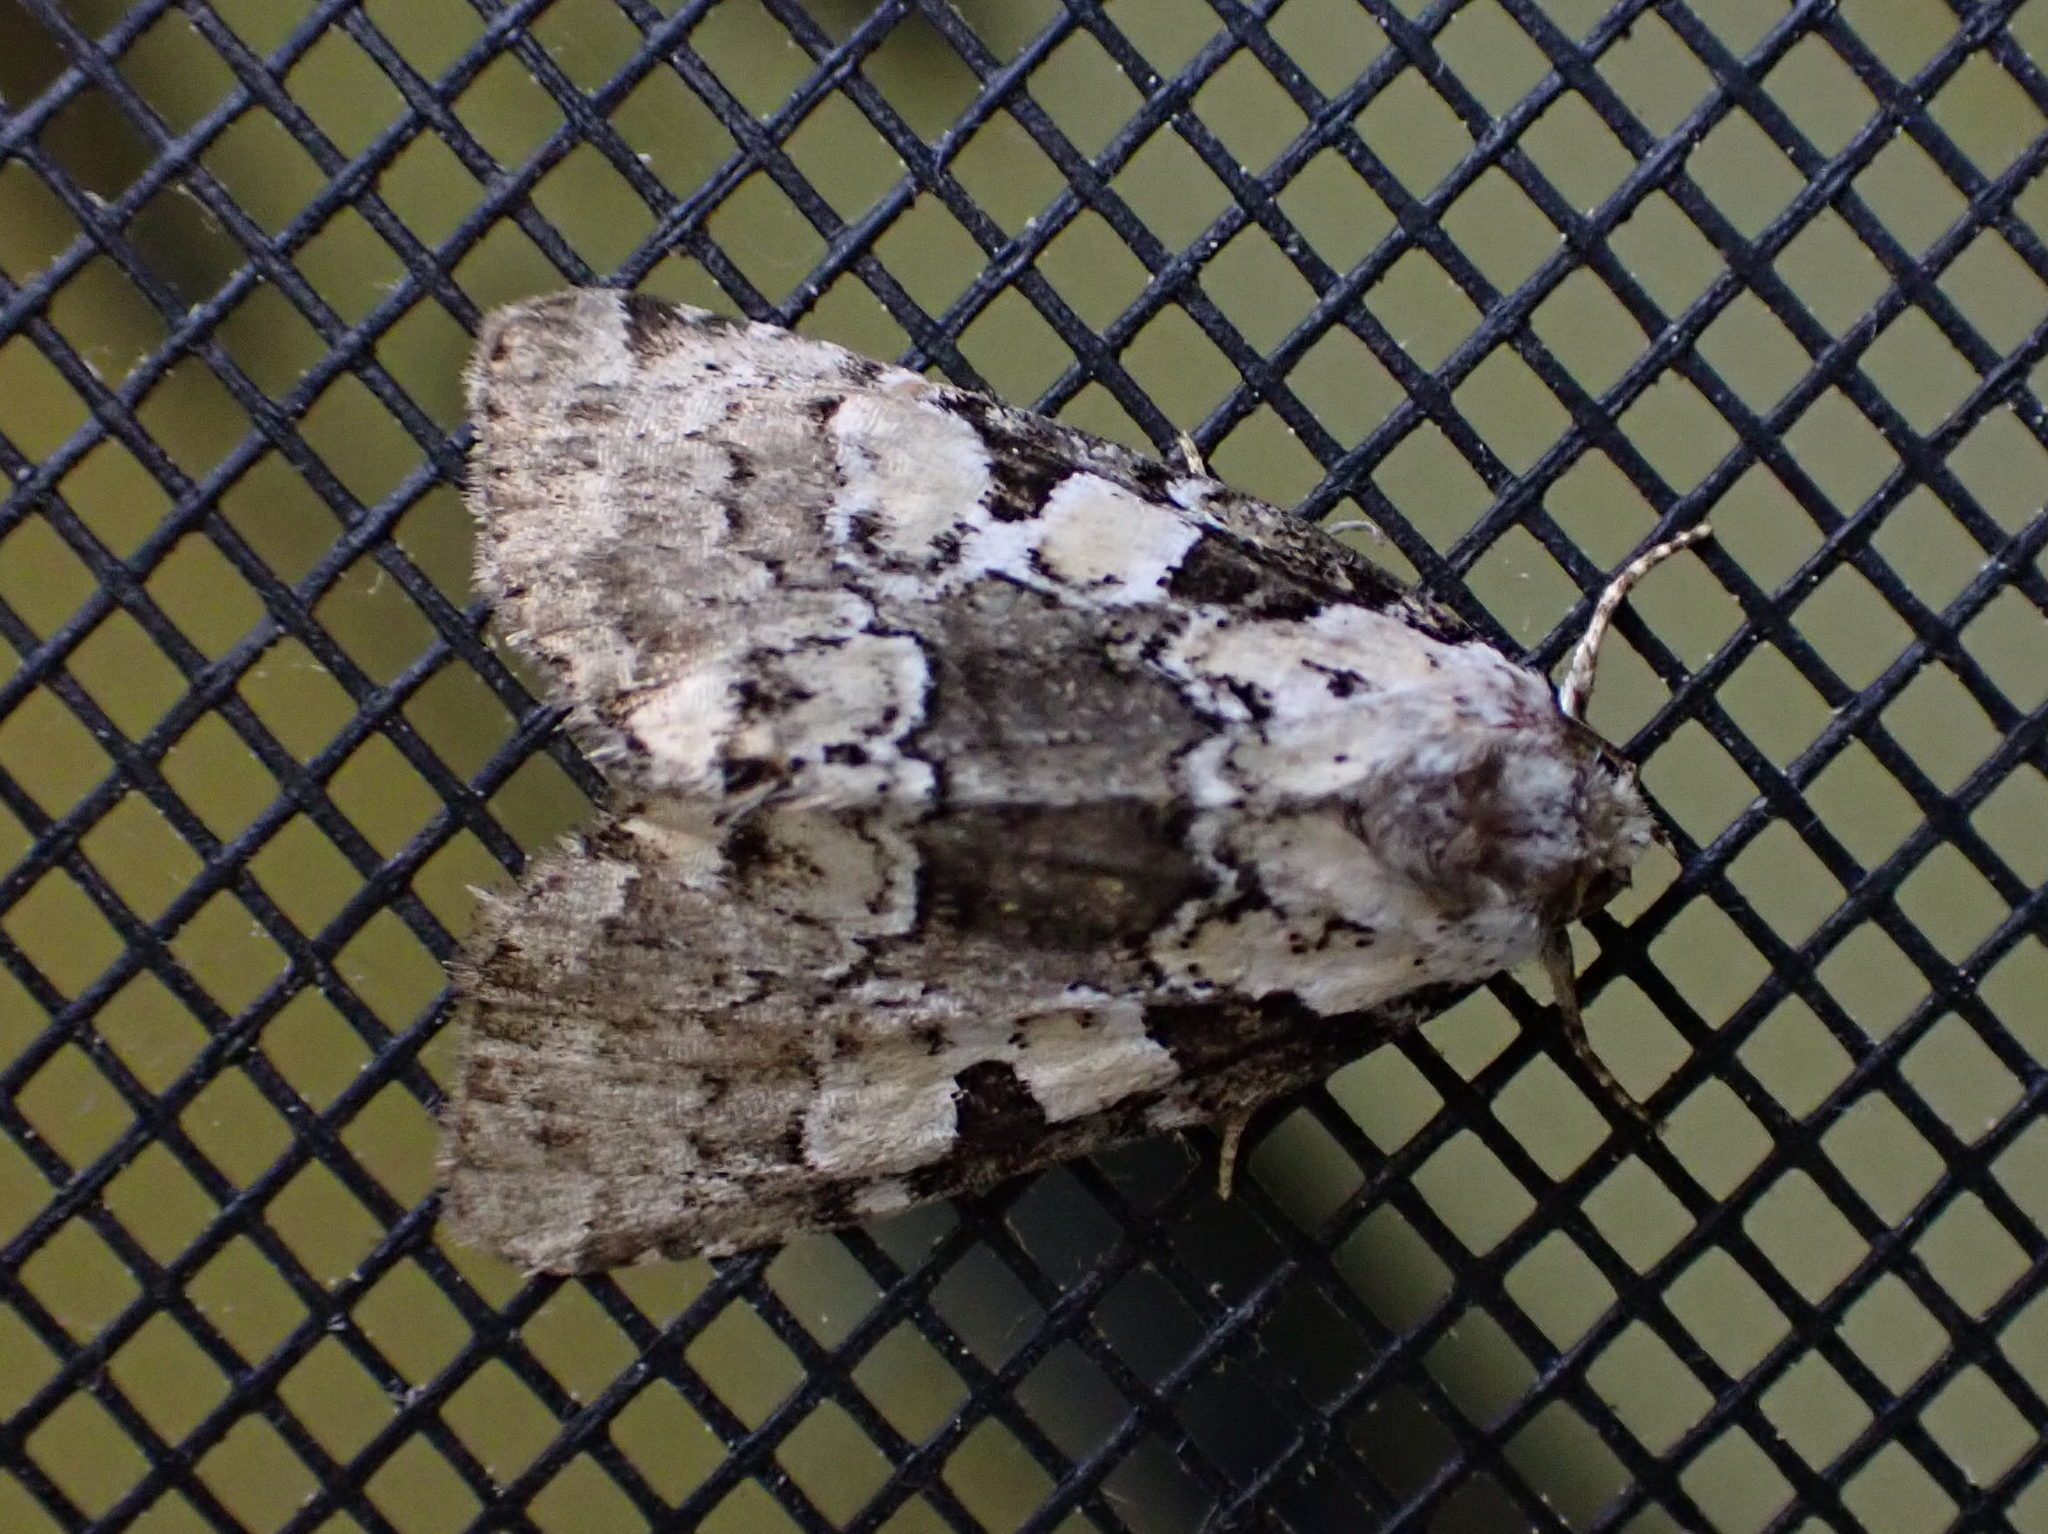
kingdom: Animalia
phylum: Arthropoda
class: Insecta
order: Lepidoptera
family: Noctuidae
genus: Leuconycta
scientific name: Leuconycta lepidula
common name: Marbled-green leuconycta moth
